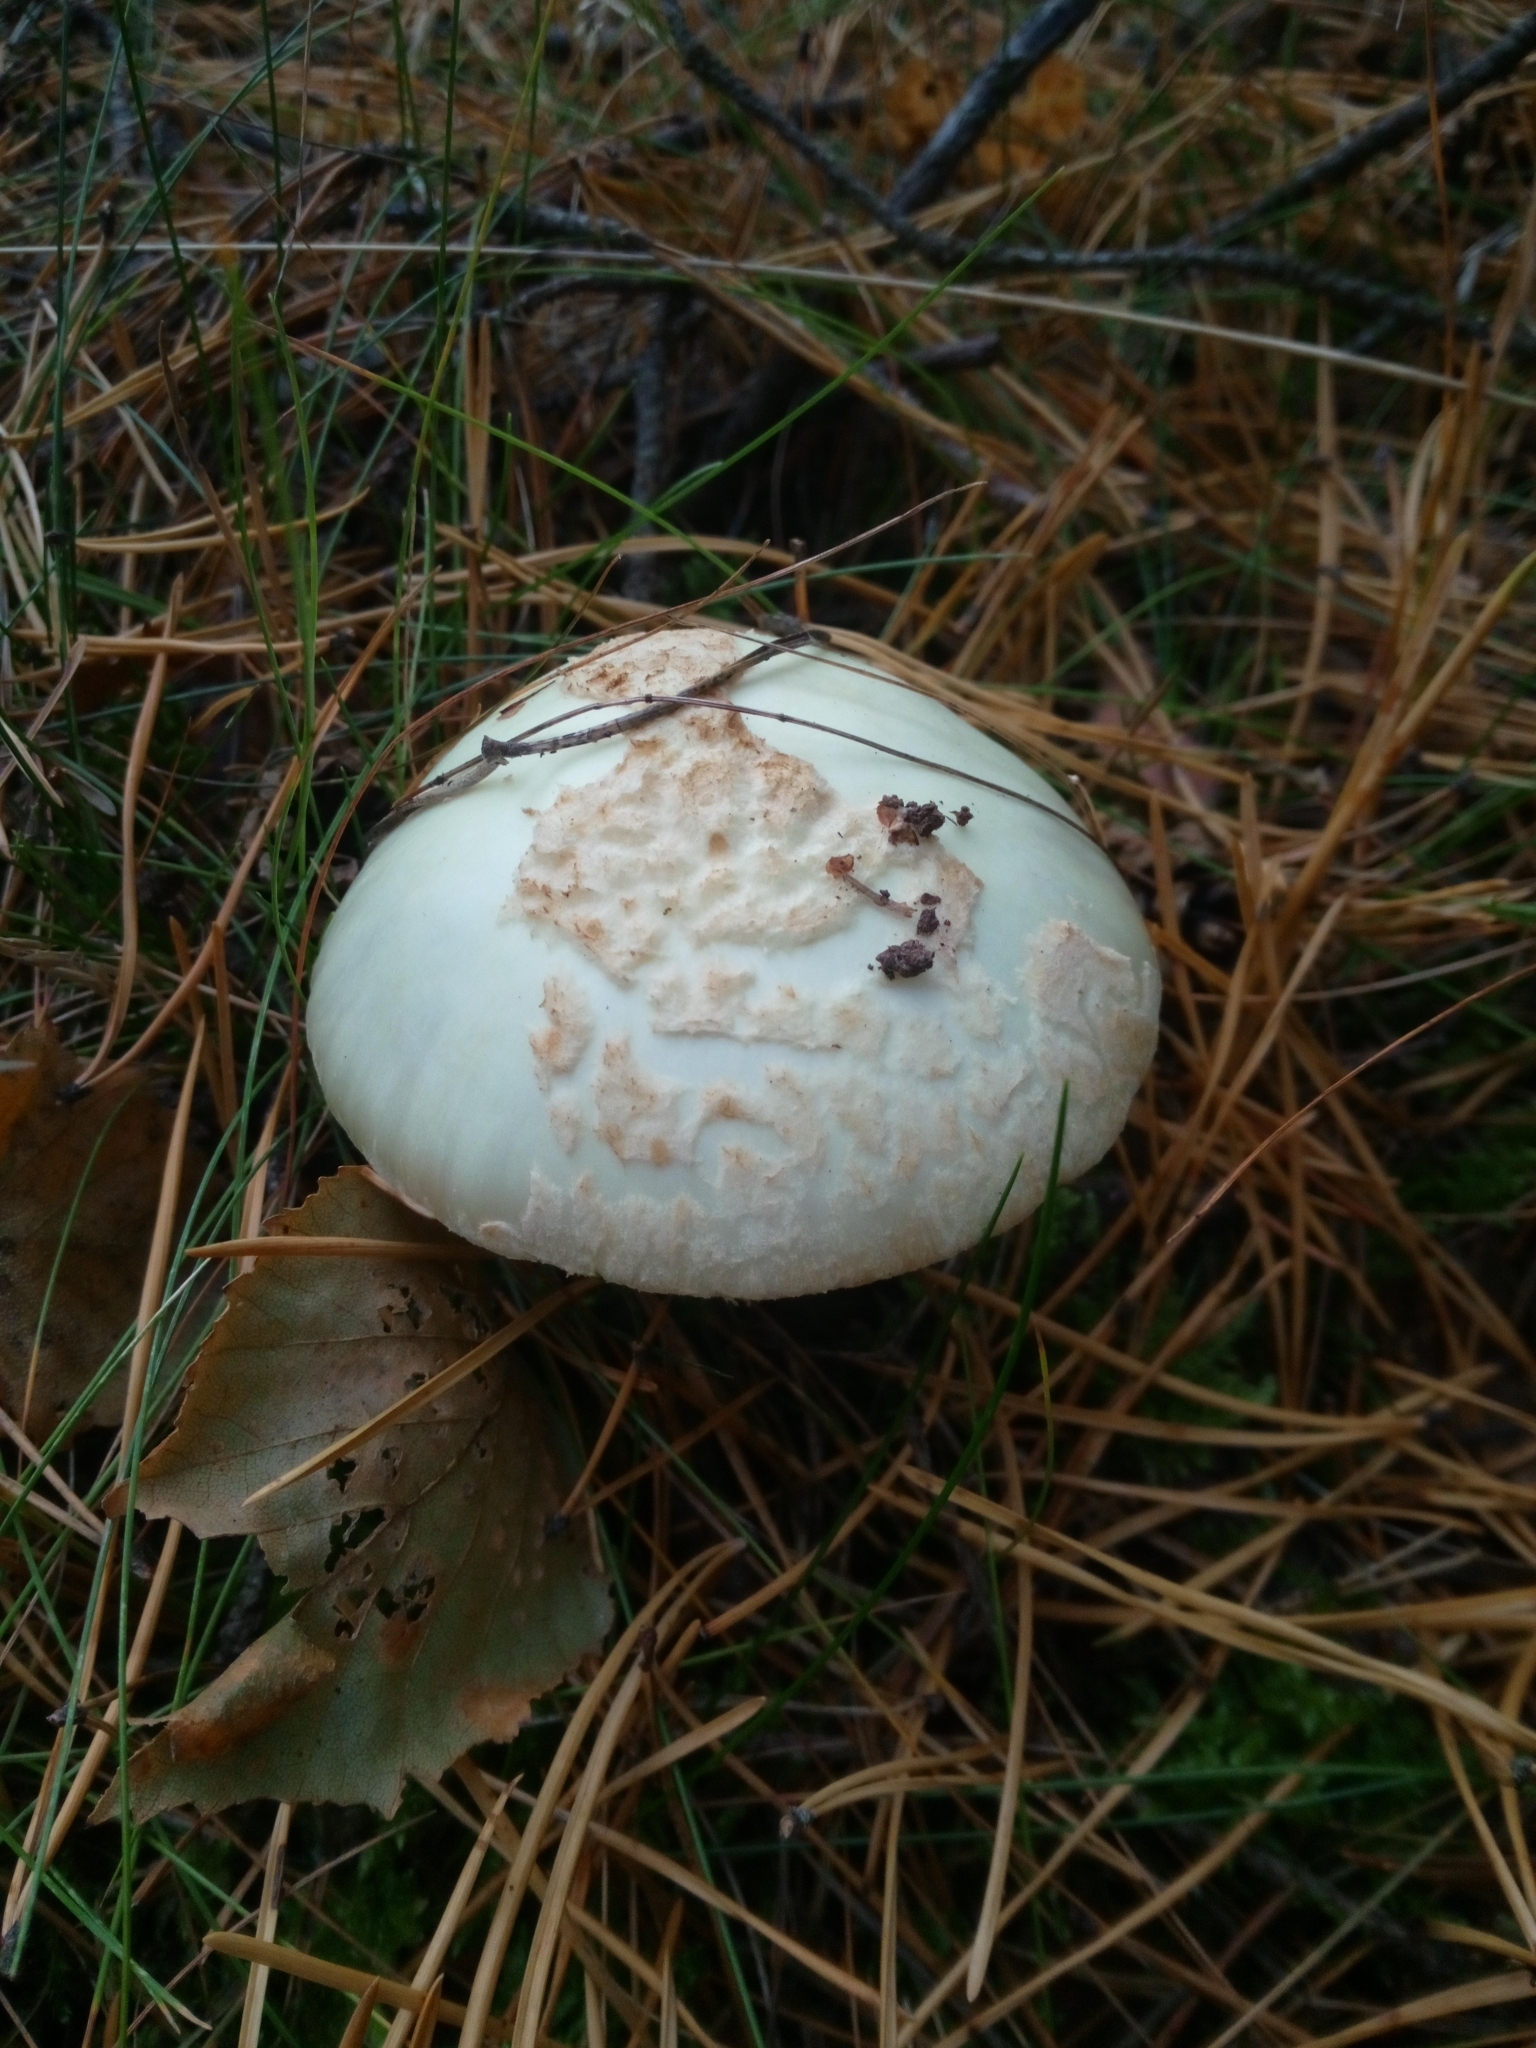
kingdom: Fungi
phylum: Basidiomycota
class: Agaricomycetes
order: Agaricales
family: Amanitaceae
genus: Amanita
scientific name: Amanita citrina
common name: False death-cap
